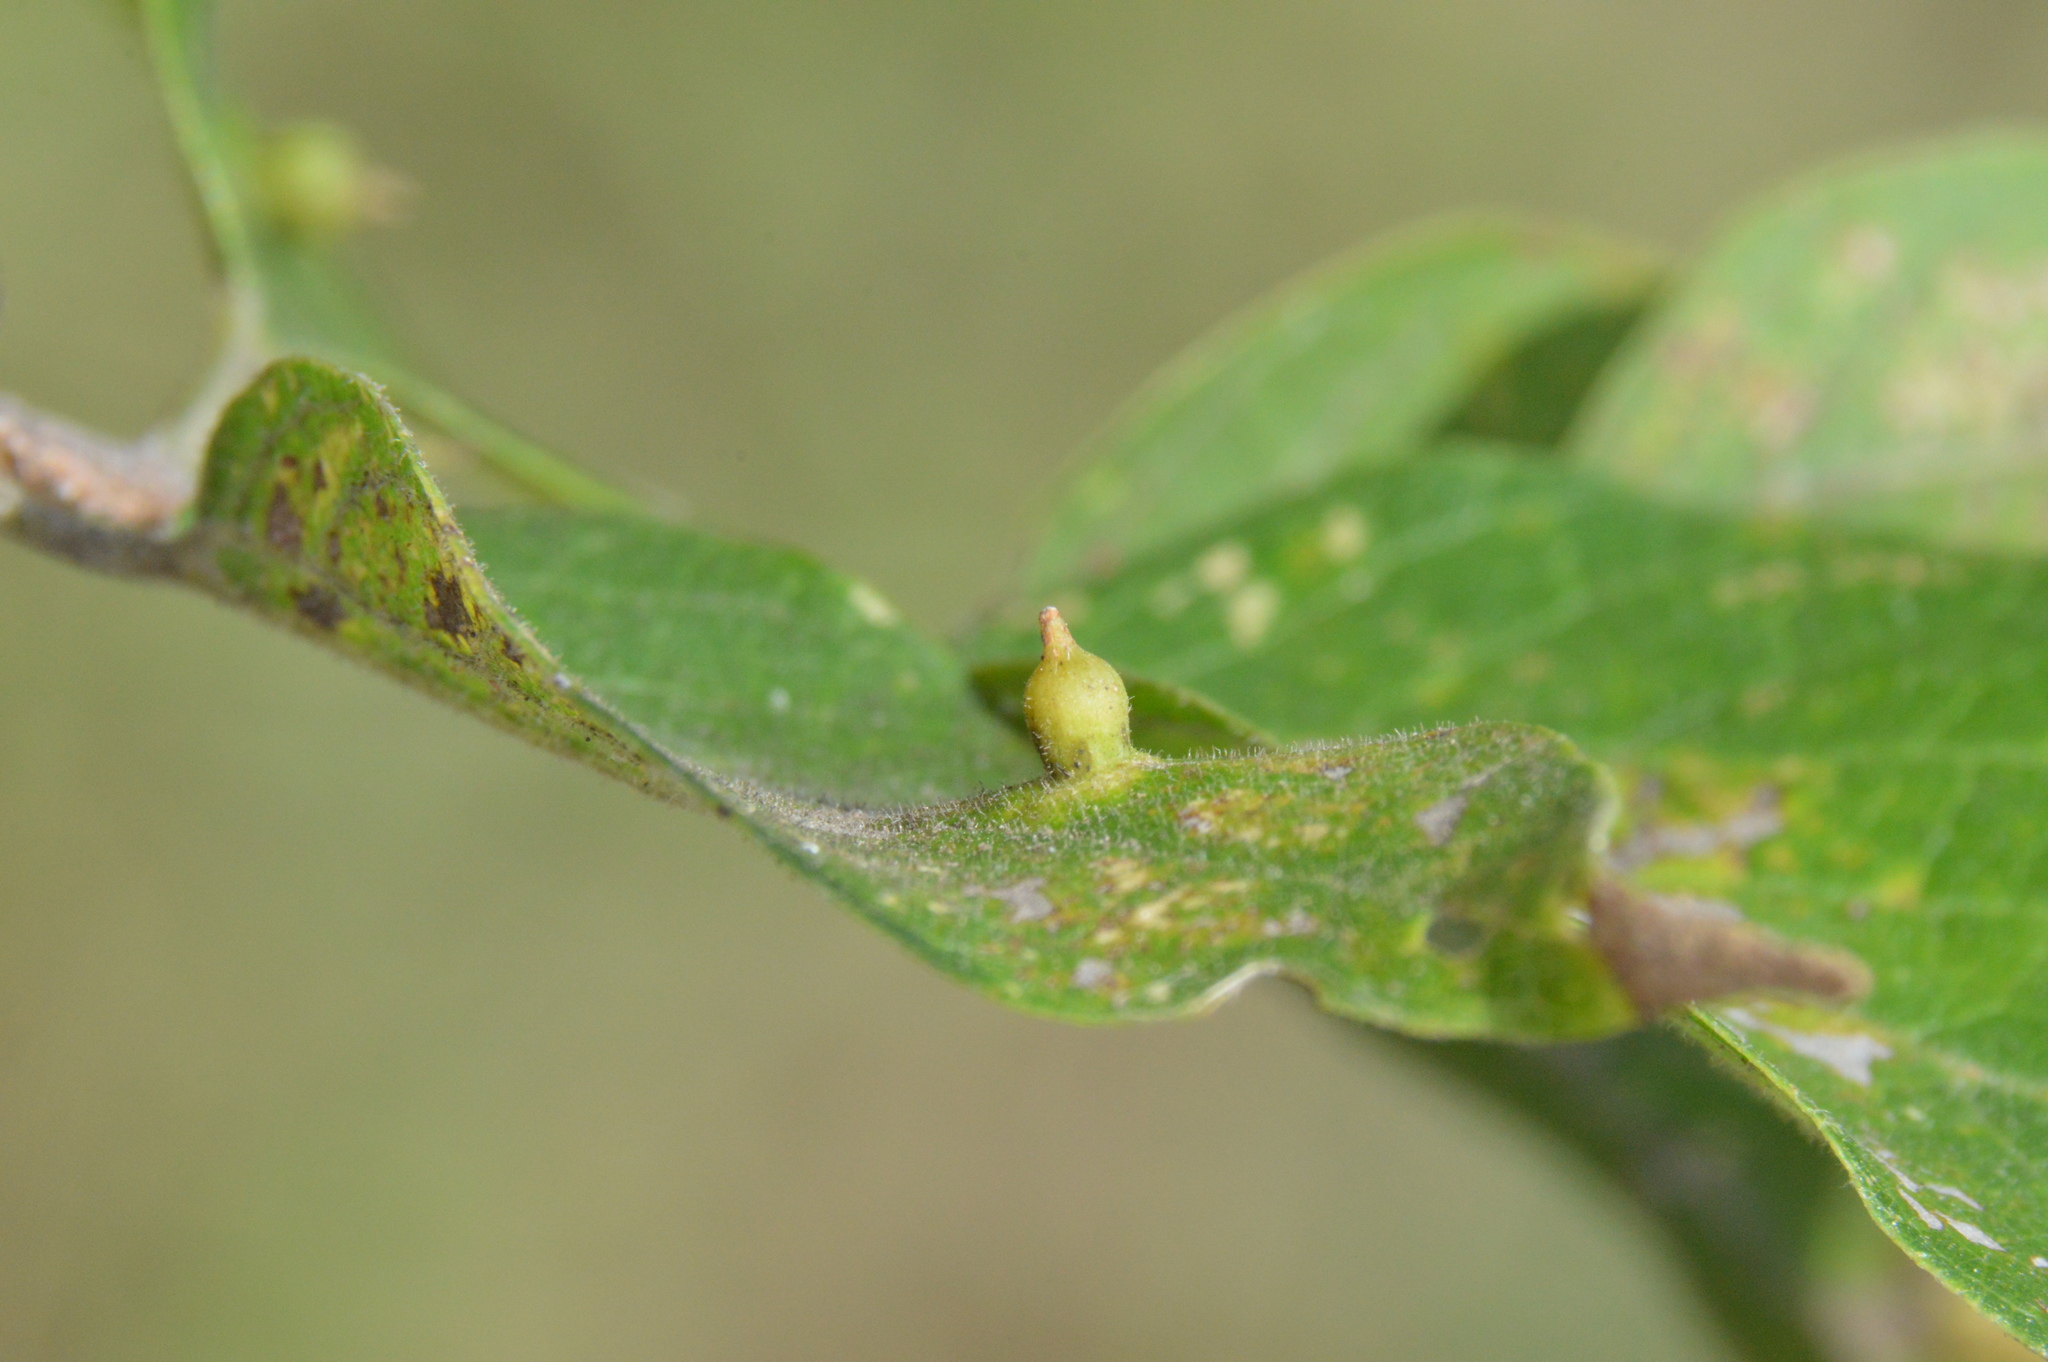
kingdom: Animalia
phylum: Arthropoda
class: Insecta
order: Diptera
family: Cecidomyiidae
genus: Celticecis
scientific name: Celticecis ramicola
